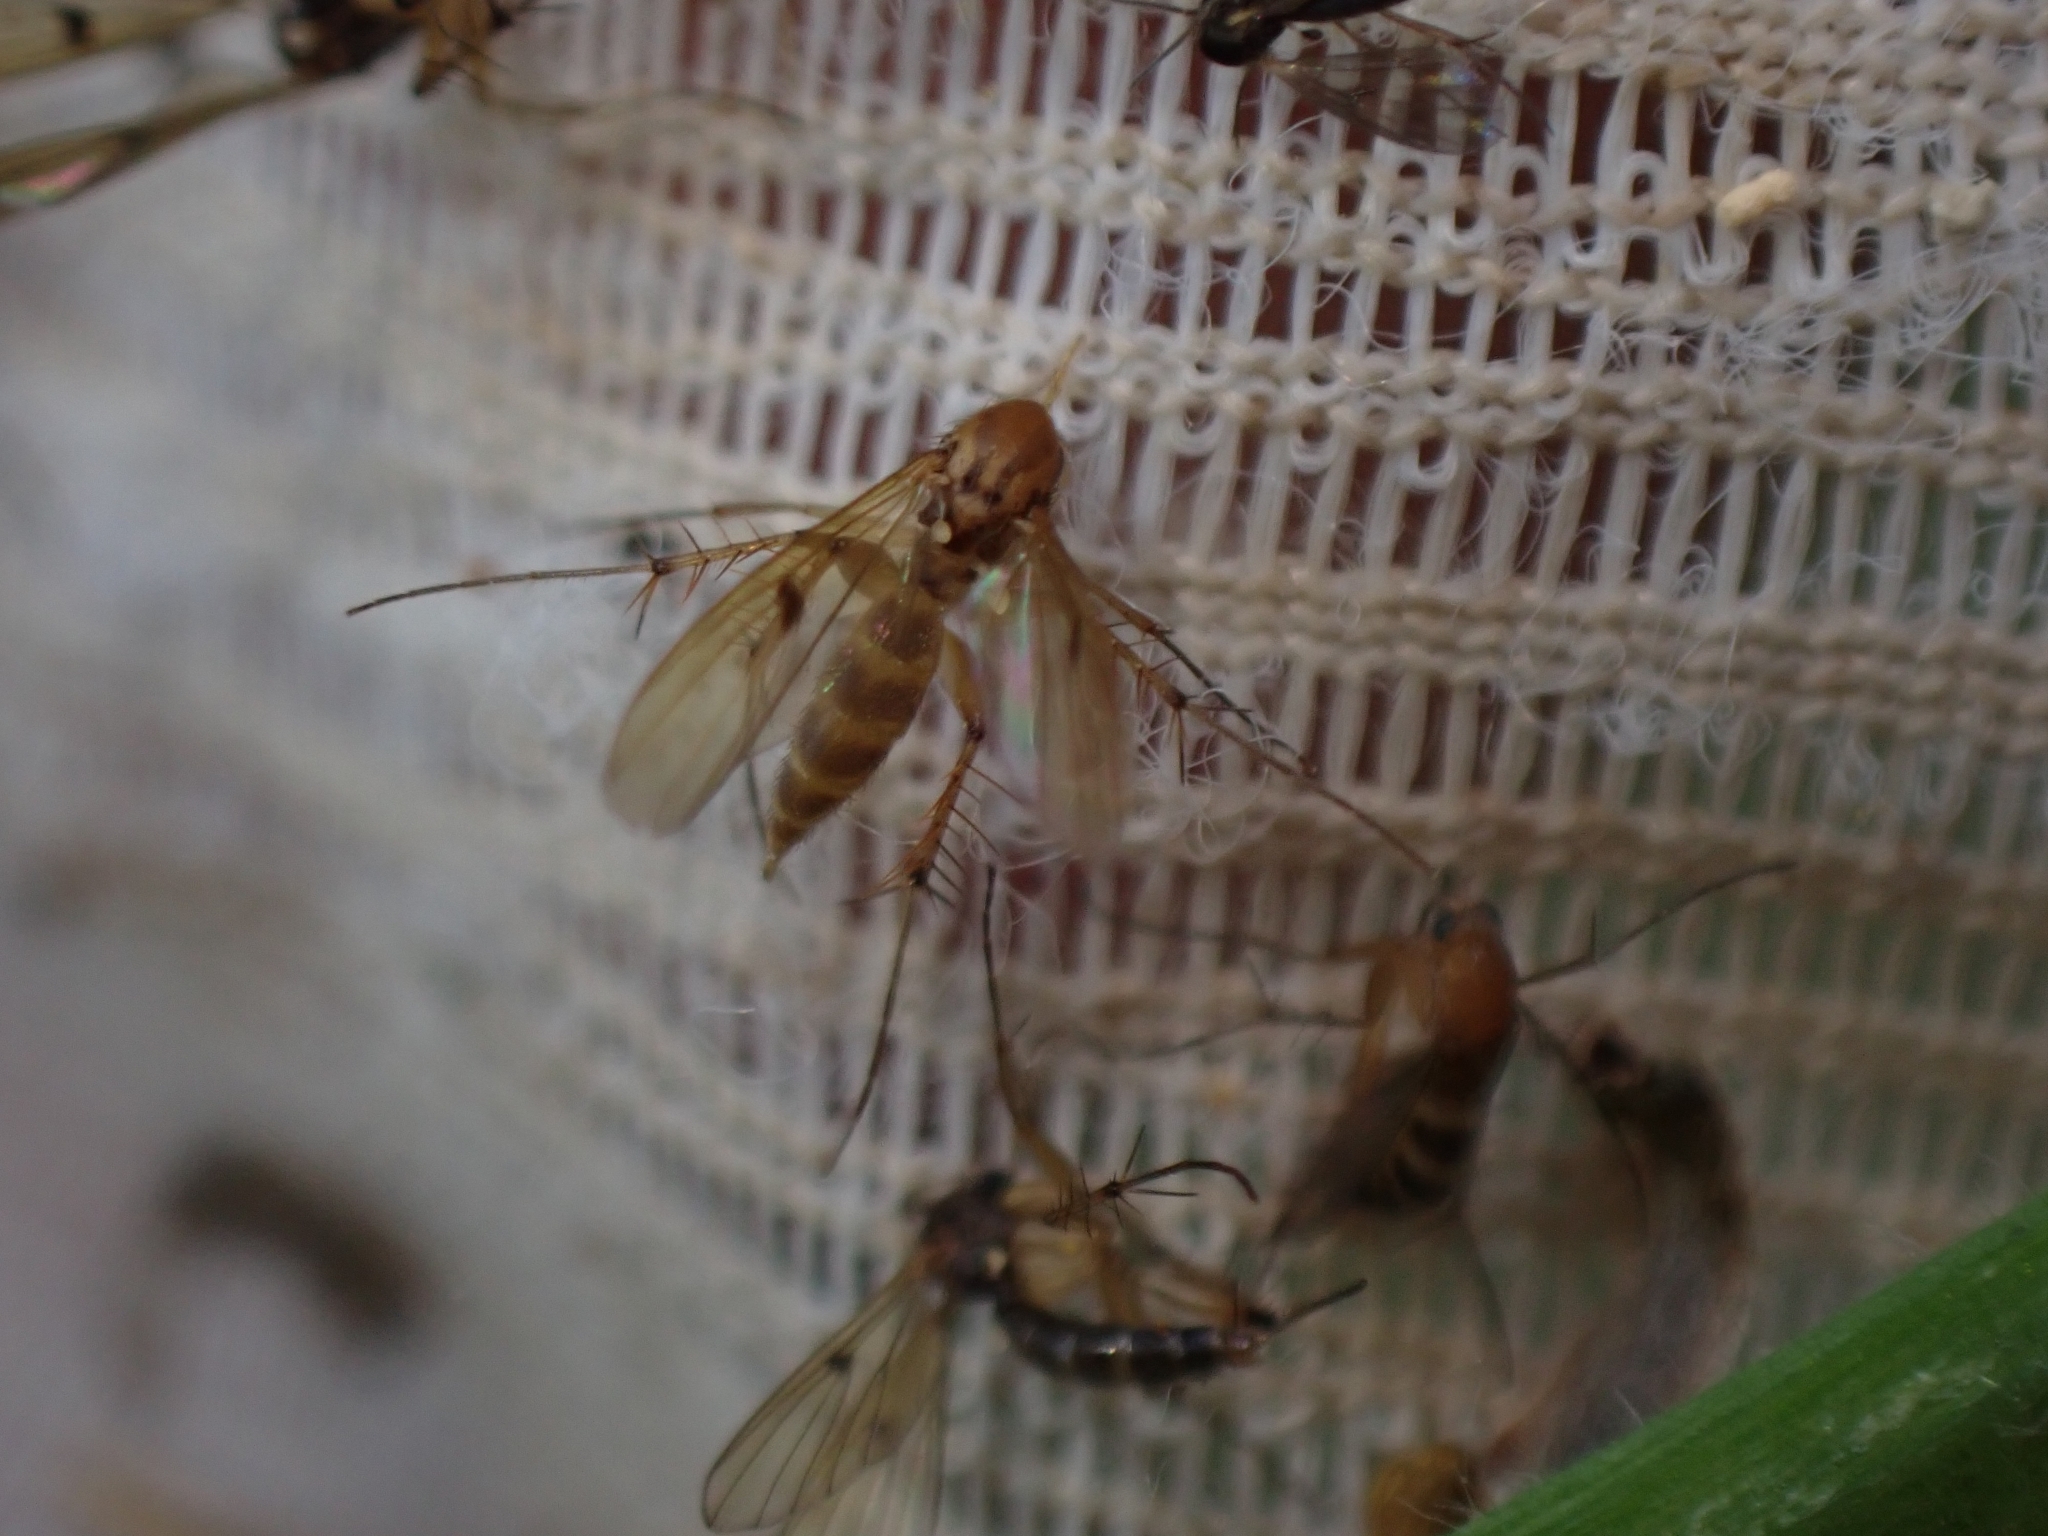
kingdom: Animalia
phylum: Arthropoda
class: Insecta
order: Diptera
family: Mycetophilidae
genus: Mycetophila
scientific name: Mycetophila clara
